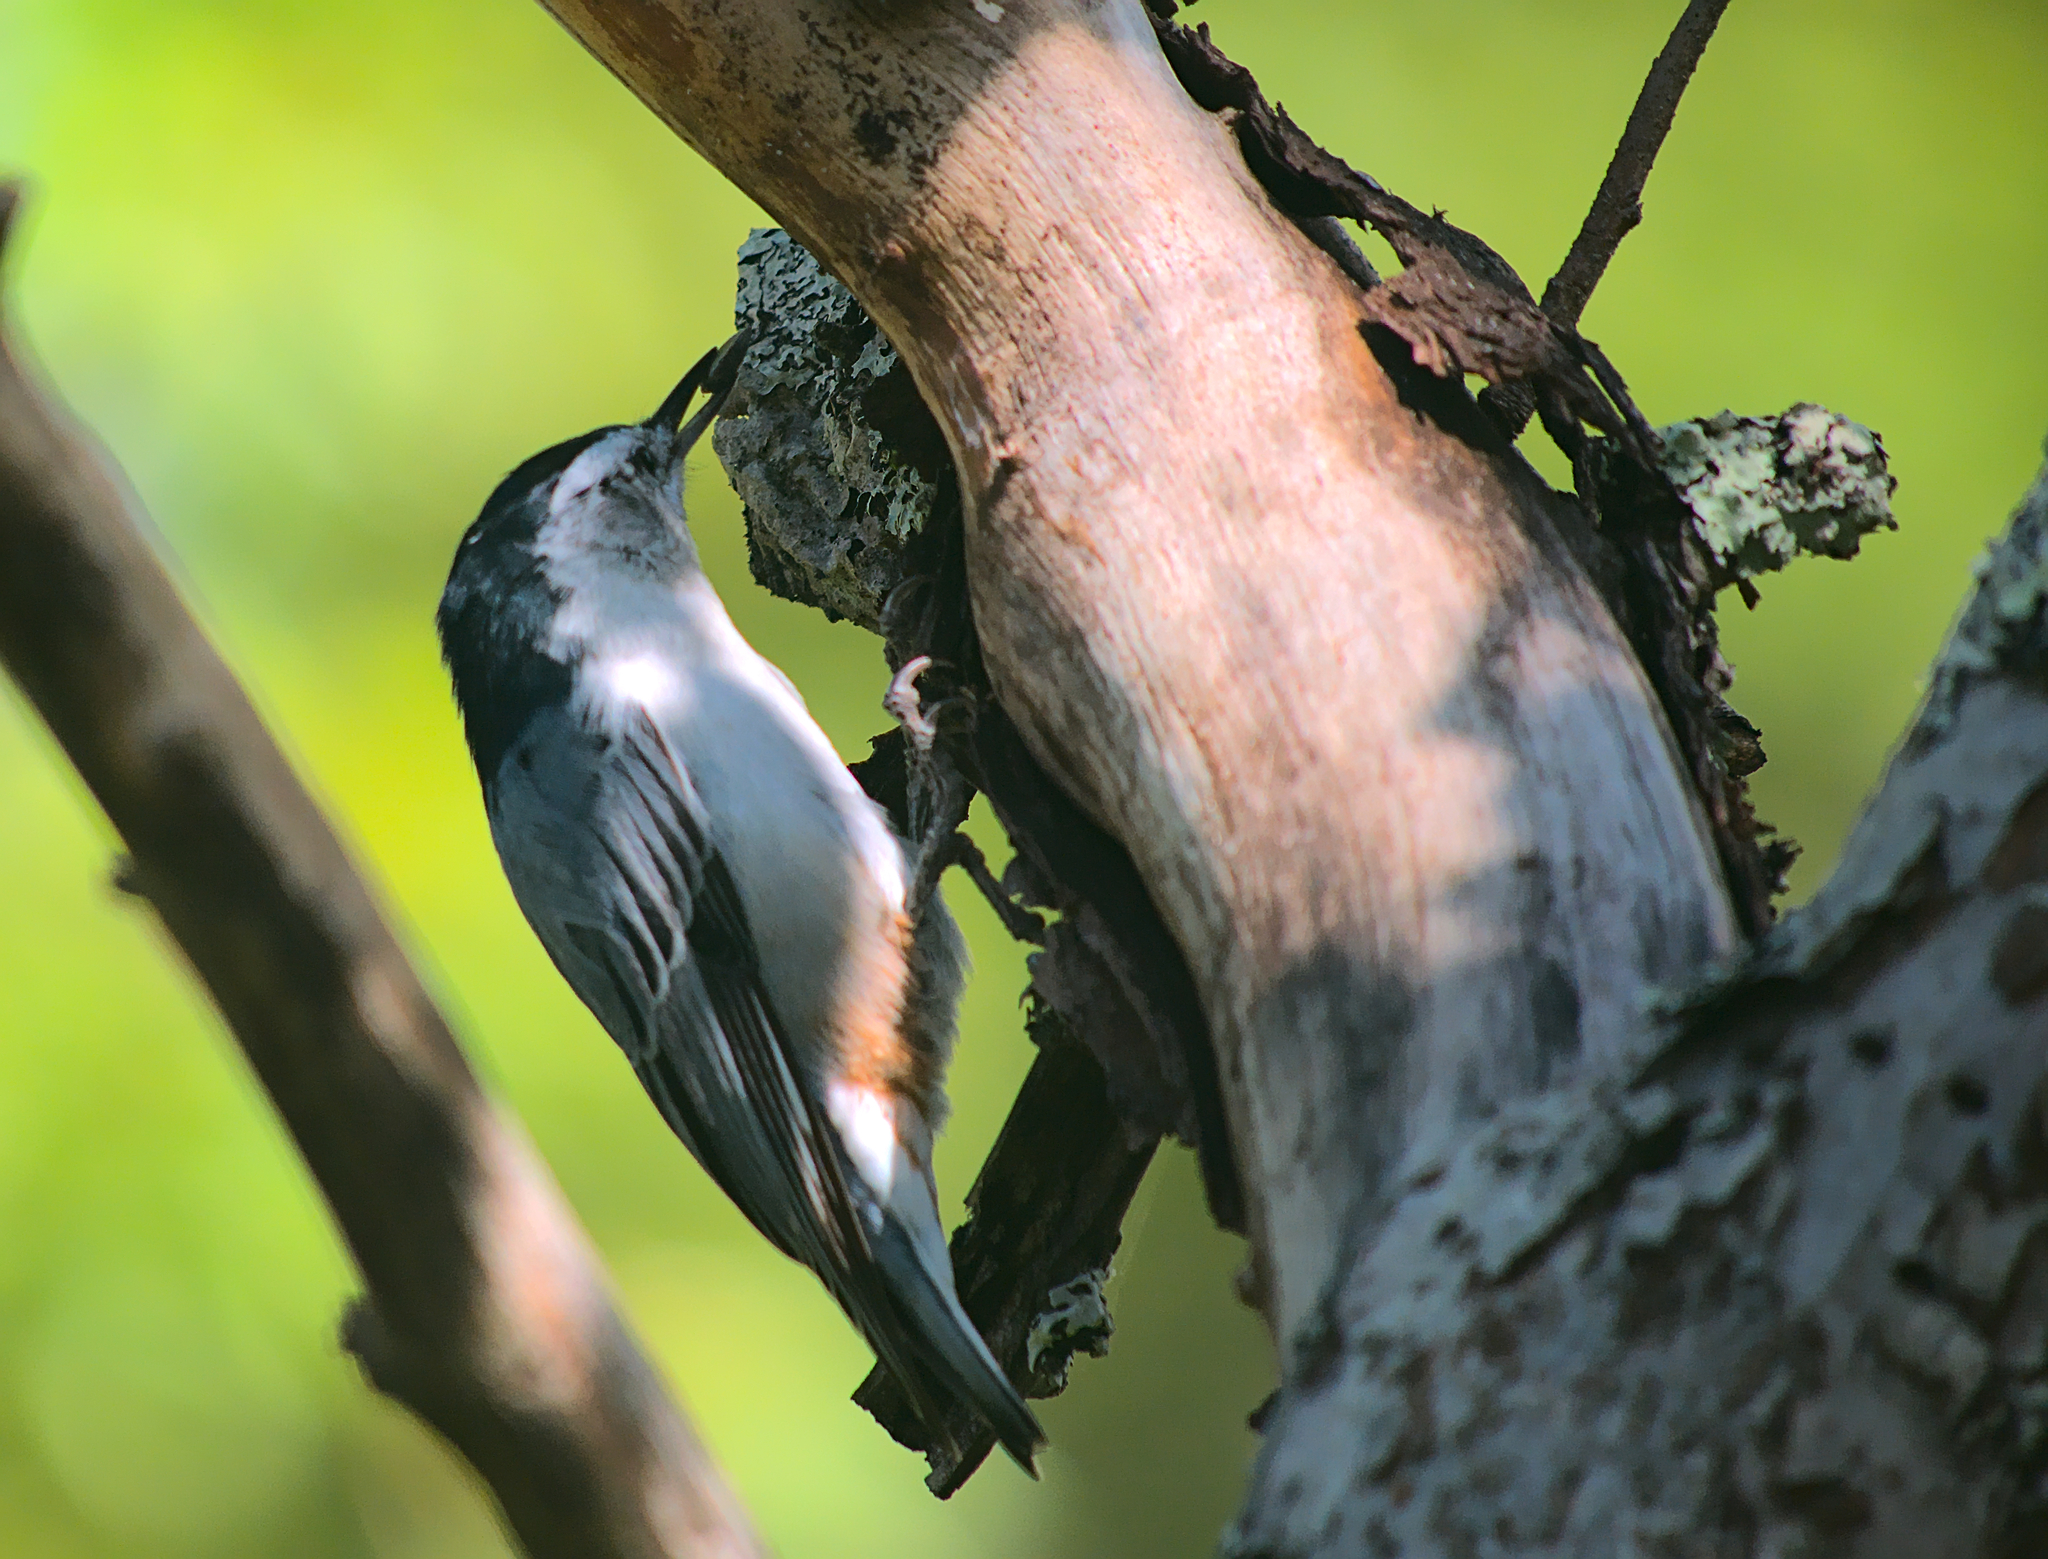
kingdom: Animalia
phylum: Chordata
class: Aves
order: Passeriformes
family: Sittidae
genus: Sitta
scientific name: Sitta carolinensis
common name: White-breasted nuthatch
